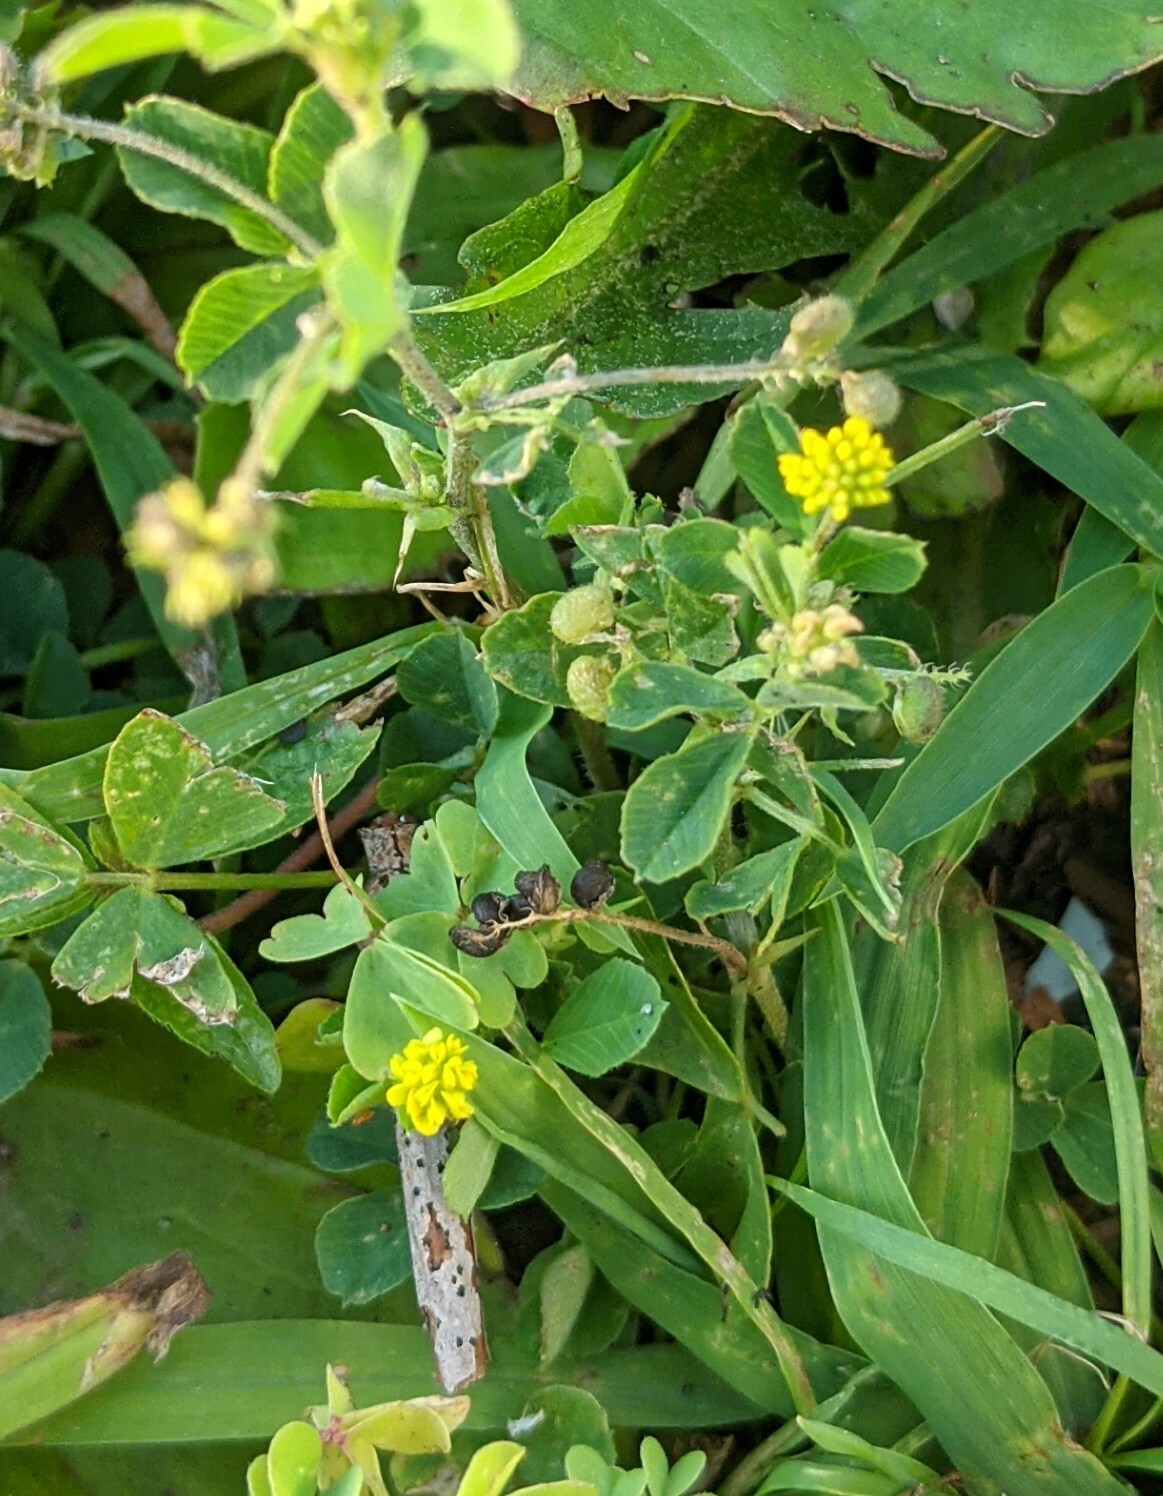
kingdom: Plantae
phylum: Tracheophyta
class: Magnoliopsida
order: Fabales
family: Fabaceae
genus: Medicago
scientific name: Medicago lupulina
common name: Black medick
